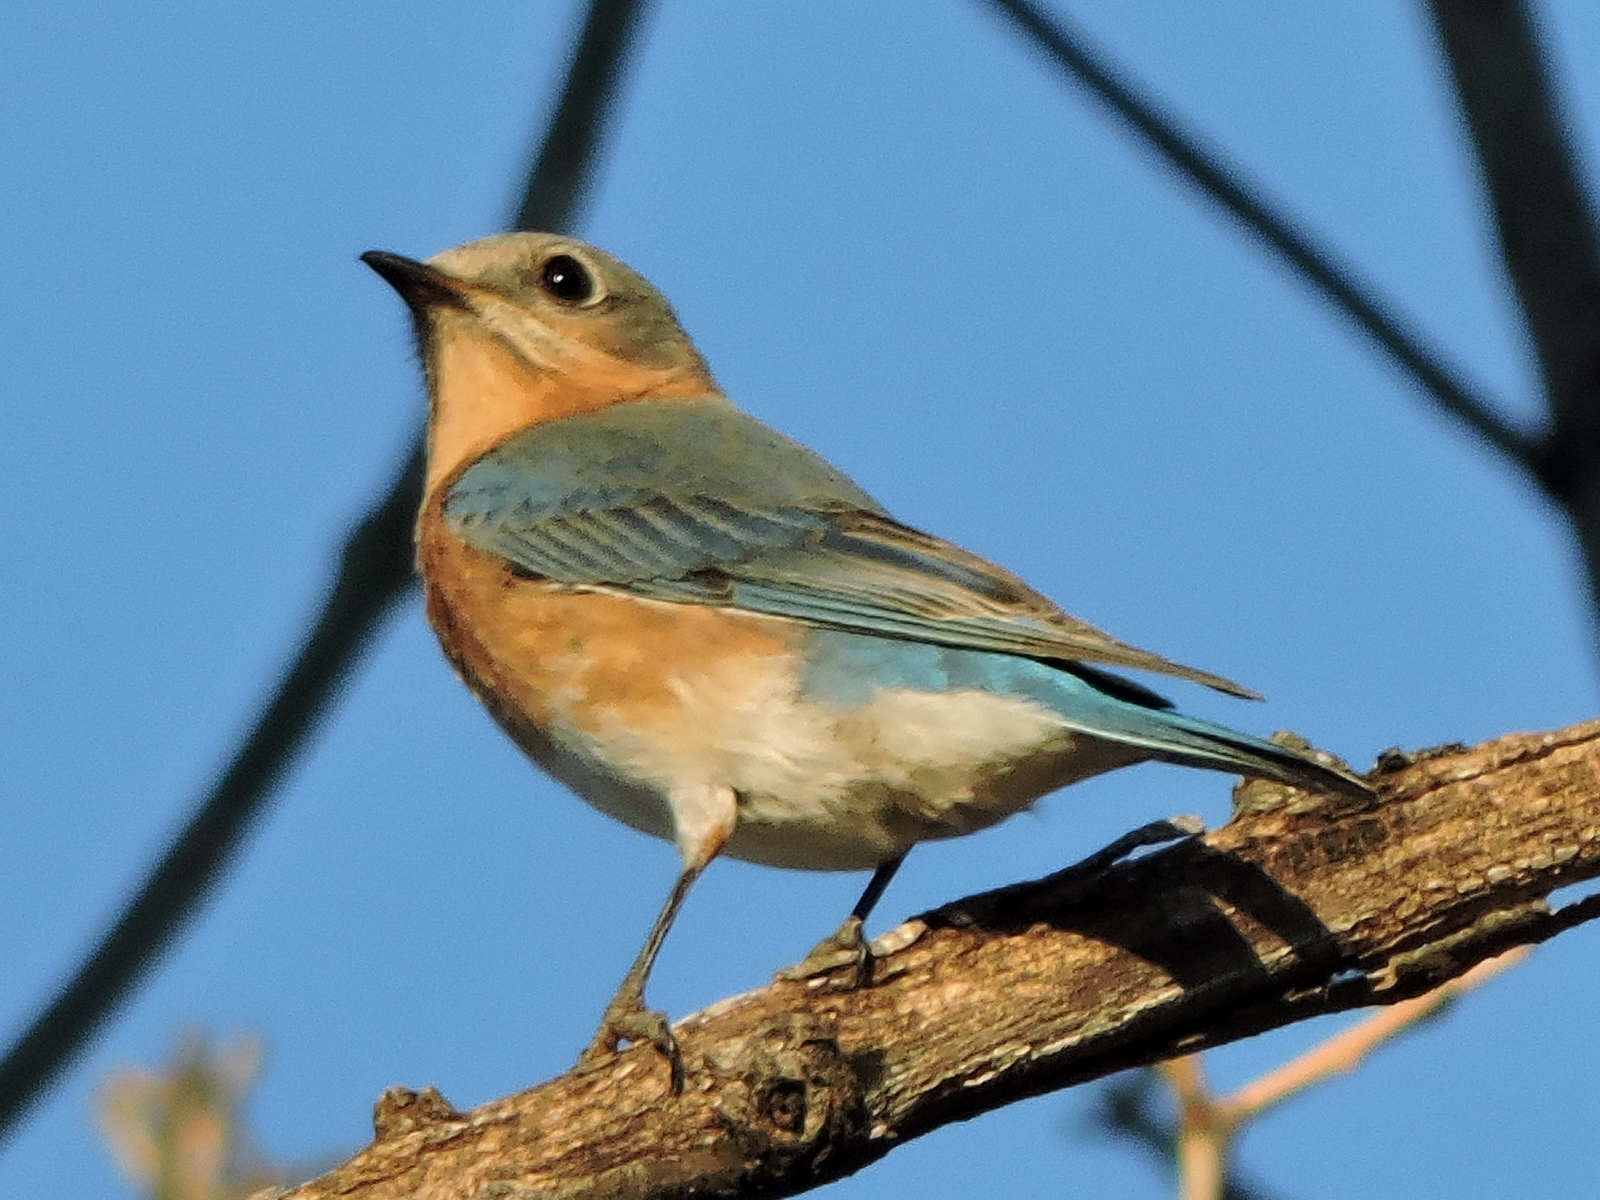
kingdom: Animalia
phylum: Chordata
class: Aves
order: Passeriformes
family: Turdidae
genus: Sialia
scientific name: Sialia sialis
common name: Eastern bluebird
